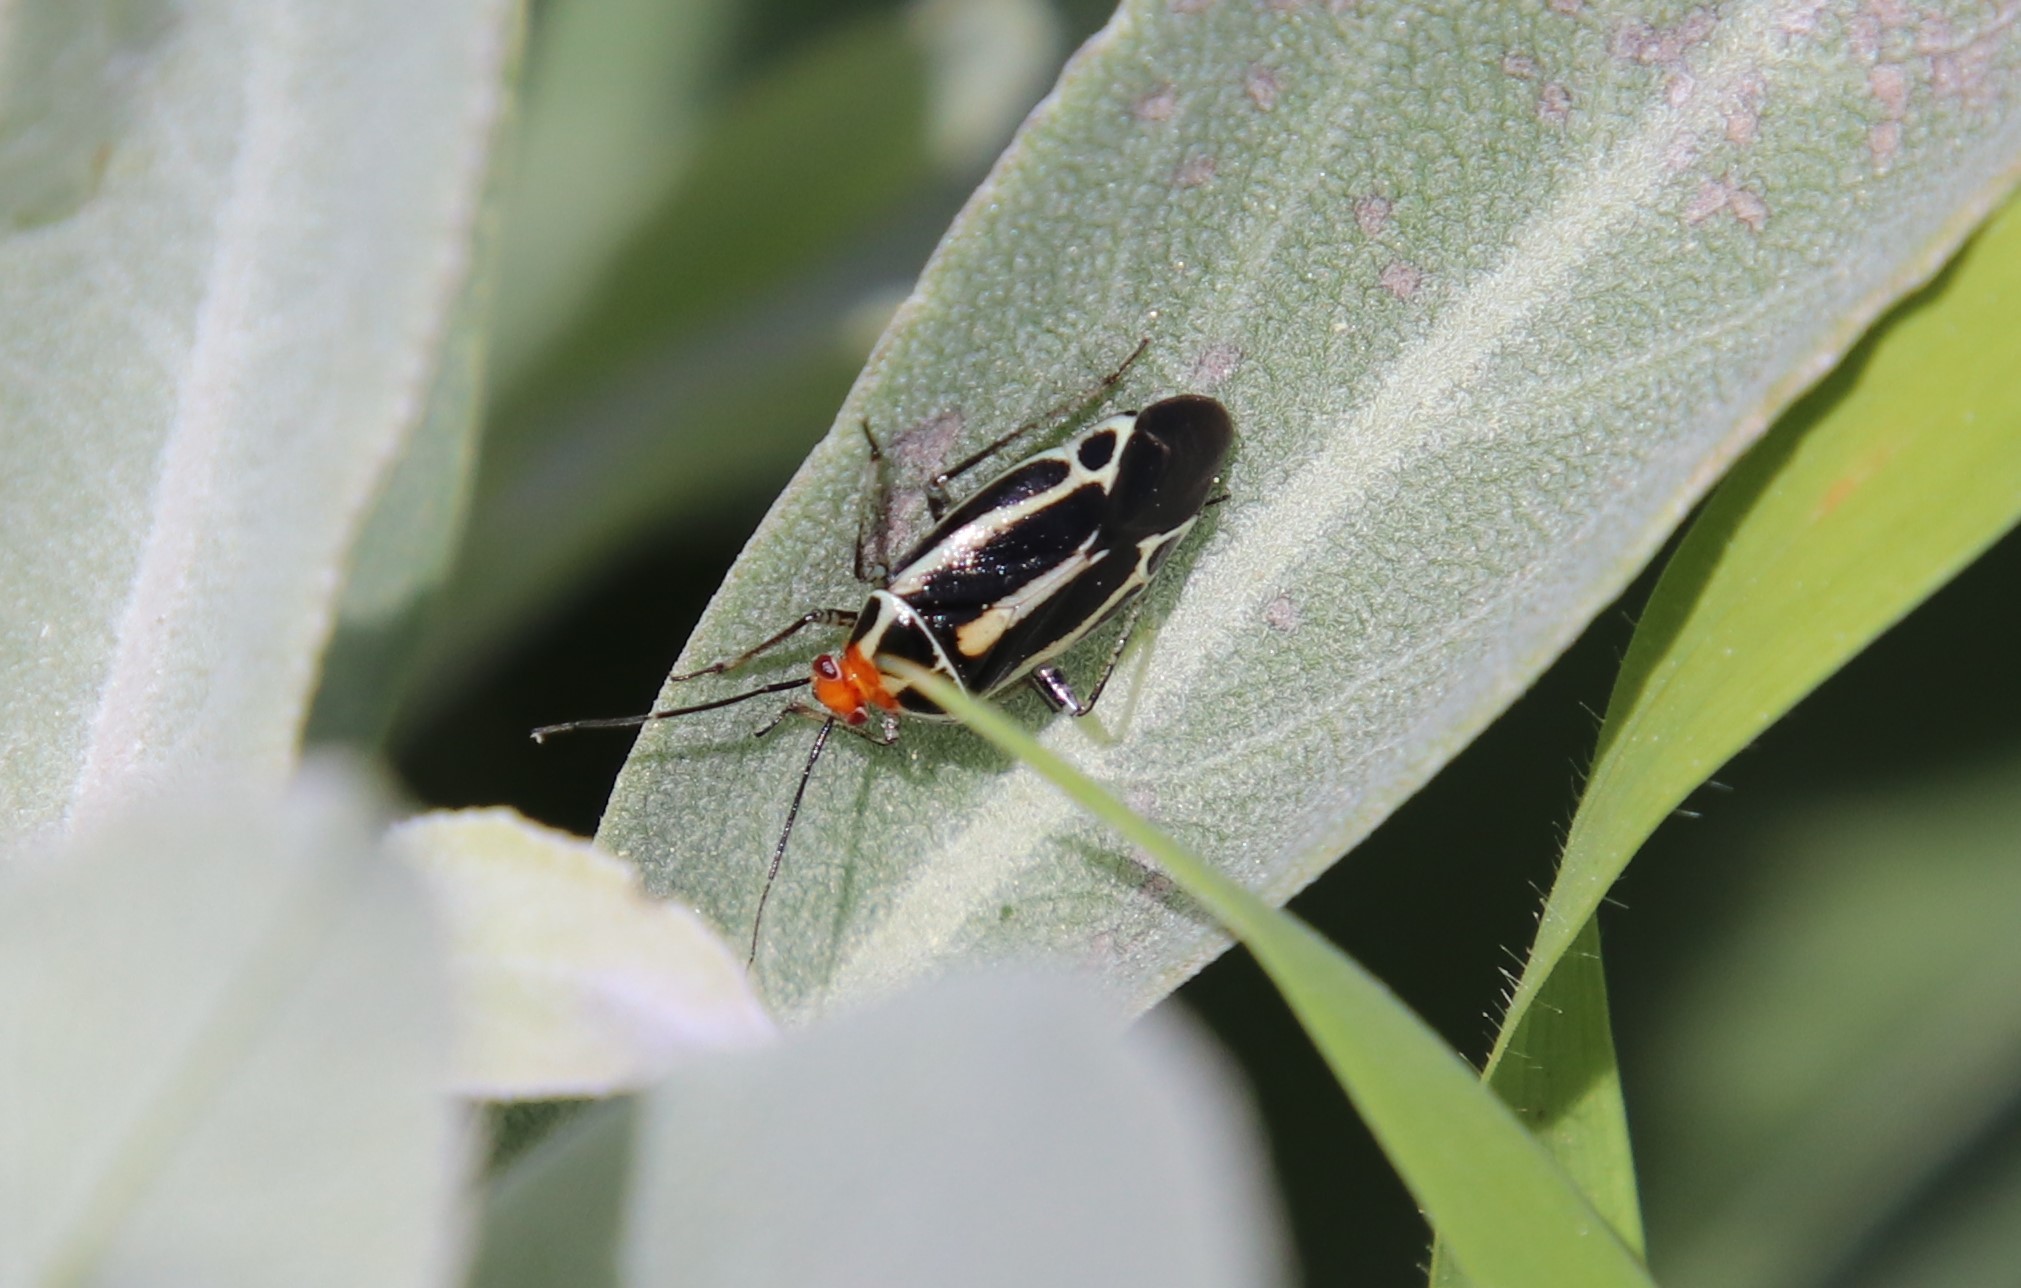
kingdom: Animalia
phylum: Arthropoda
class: Insecta
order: Hemiptera
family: Miridae
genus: Poecilocapsus
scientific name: Poecilocapsus lineatus
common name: Four-lined plant bug
